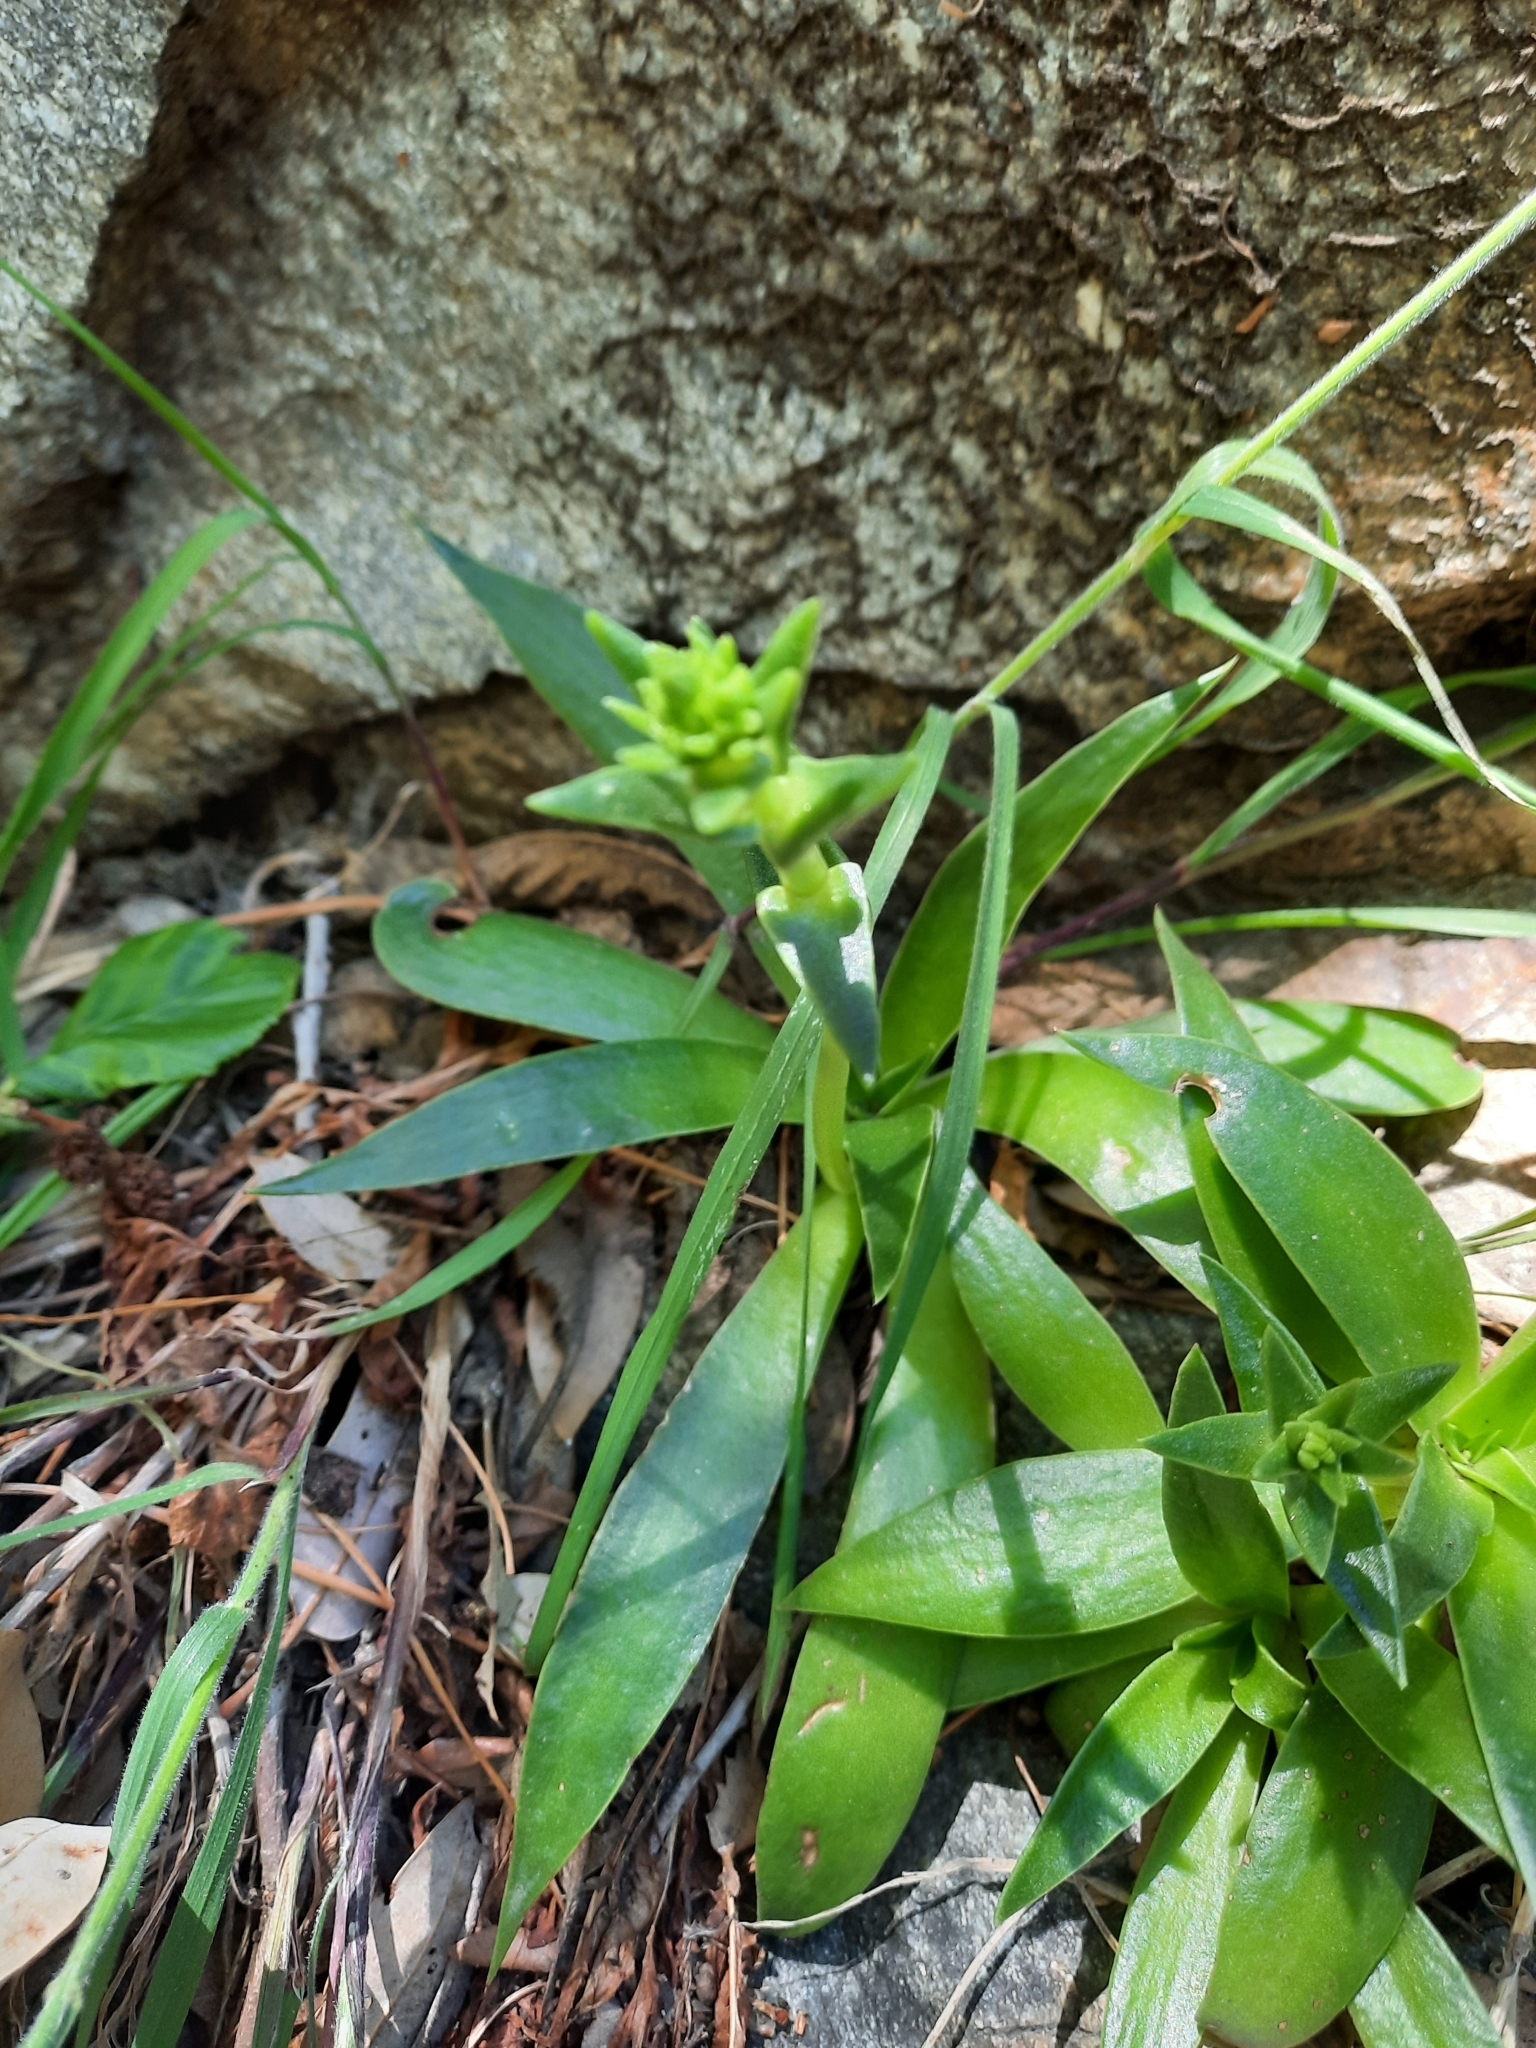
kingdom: Plantae
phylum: Tracheophyta
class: Magnoliopsida
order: Saxifragales
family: Crassulaceae
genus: Dudleya
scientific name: Dudleya lanceolata
